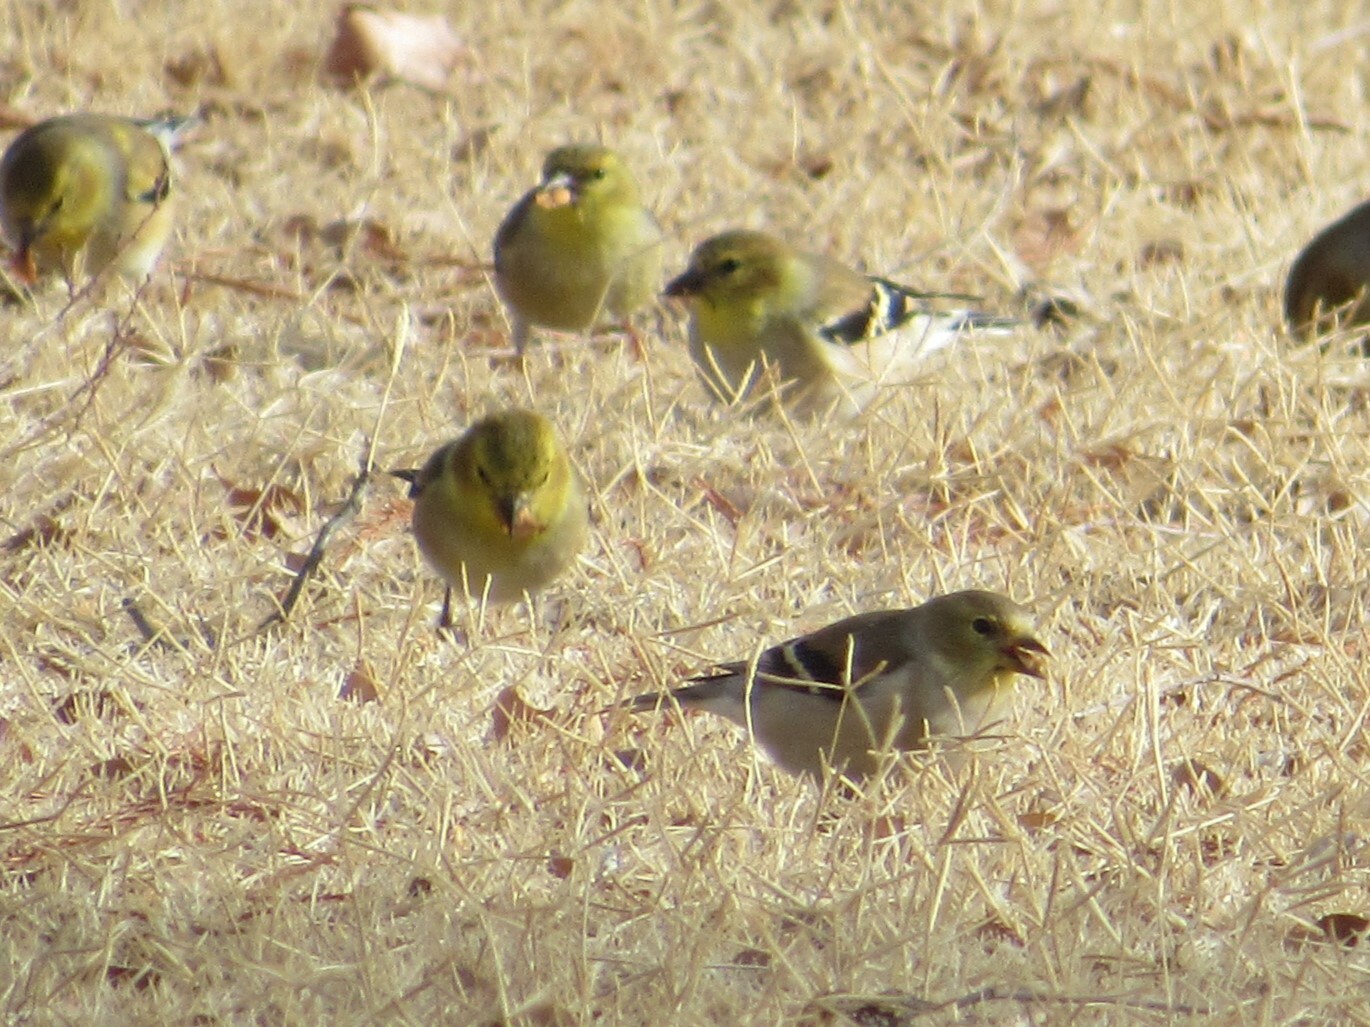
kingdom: Animalia
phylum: Chordata
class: Aves
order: Passeriformes
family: Fringillidae
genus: Spinus
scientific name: Spinus tristis
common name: American goldfinch
